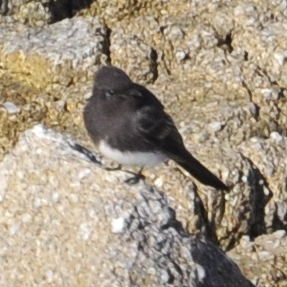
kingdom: Animalia
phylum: Chordata
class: Aves
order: Passeriformes
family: Tyrannidae
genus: Sayornis
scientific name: Sayornis nigricans
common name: Black phoebe
